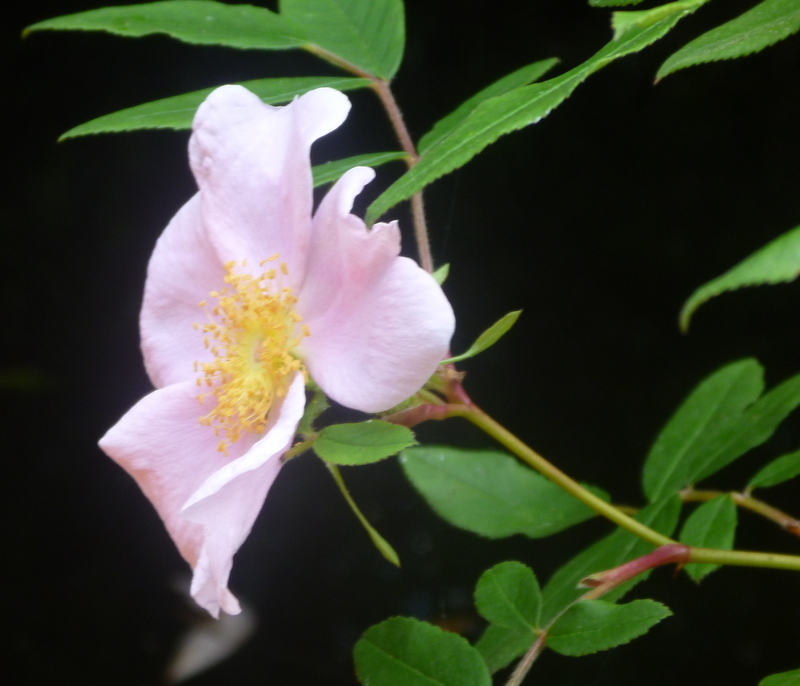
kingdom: Plantae
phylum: Tracheophyta
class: Magnoliopsida
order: Rosales
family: Rosaceae
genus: Rosa
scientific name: Rosa palustris
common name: Swamp rose
